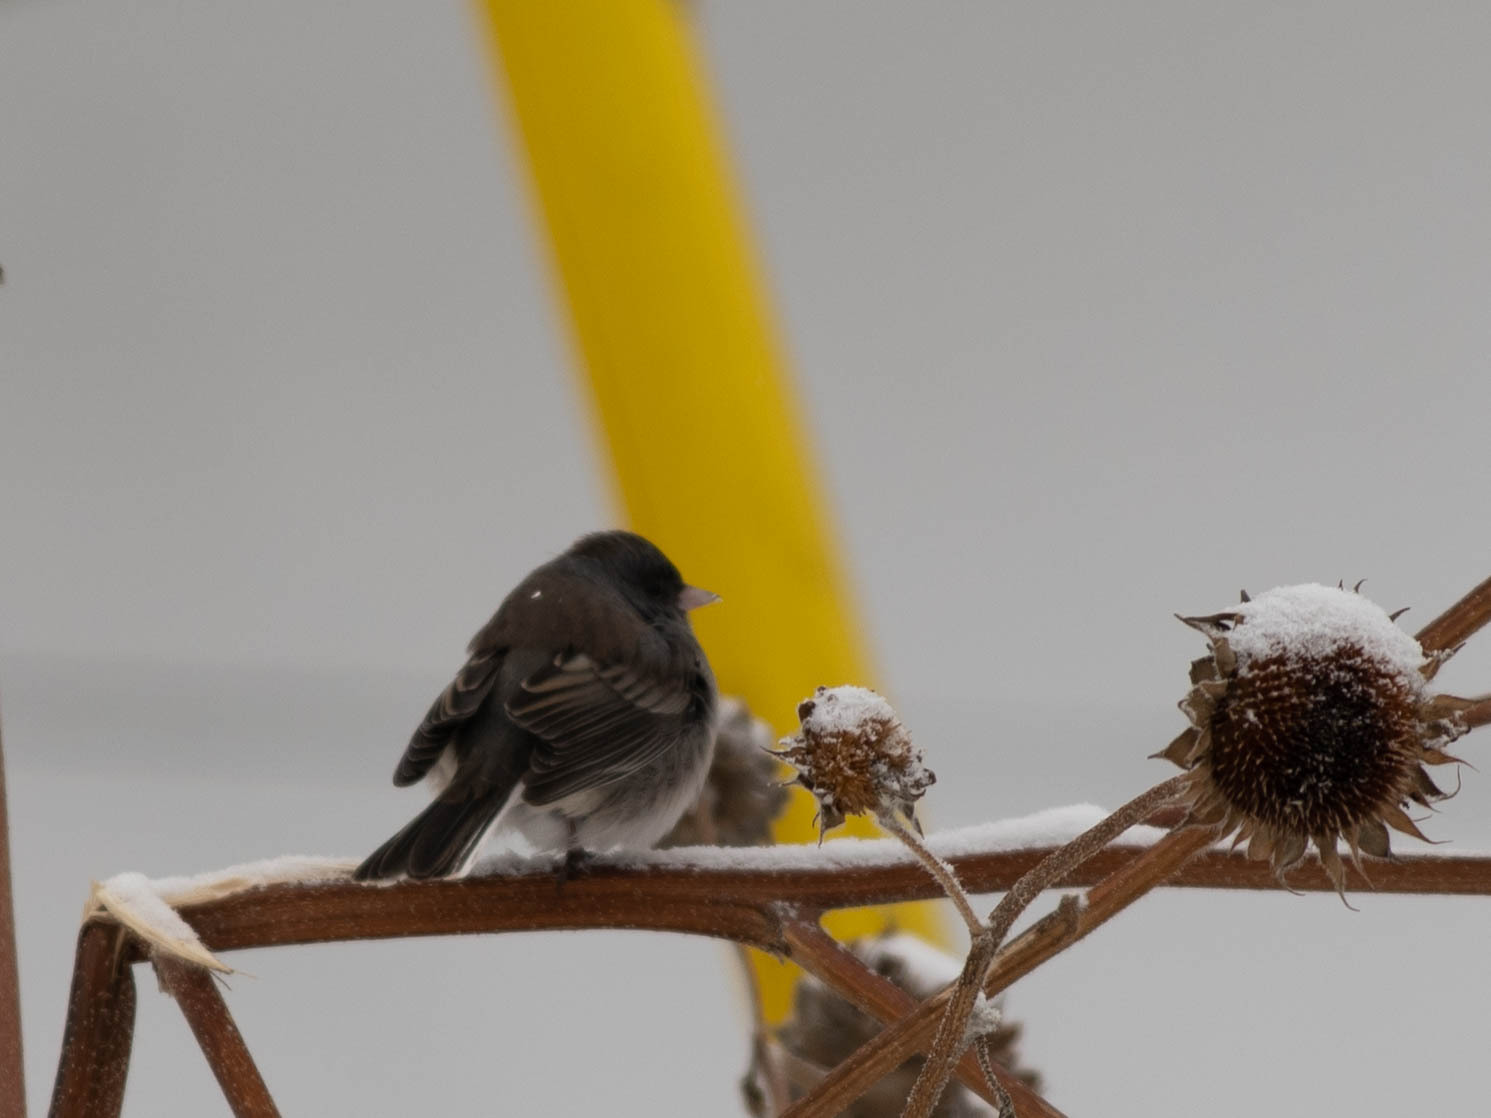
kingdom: Animalia
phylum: Chordata
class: Aves
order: Passeriformes
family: Passerellidae
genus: Junco
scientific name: Junco hyemalis
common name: Dark-eyed junco
